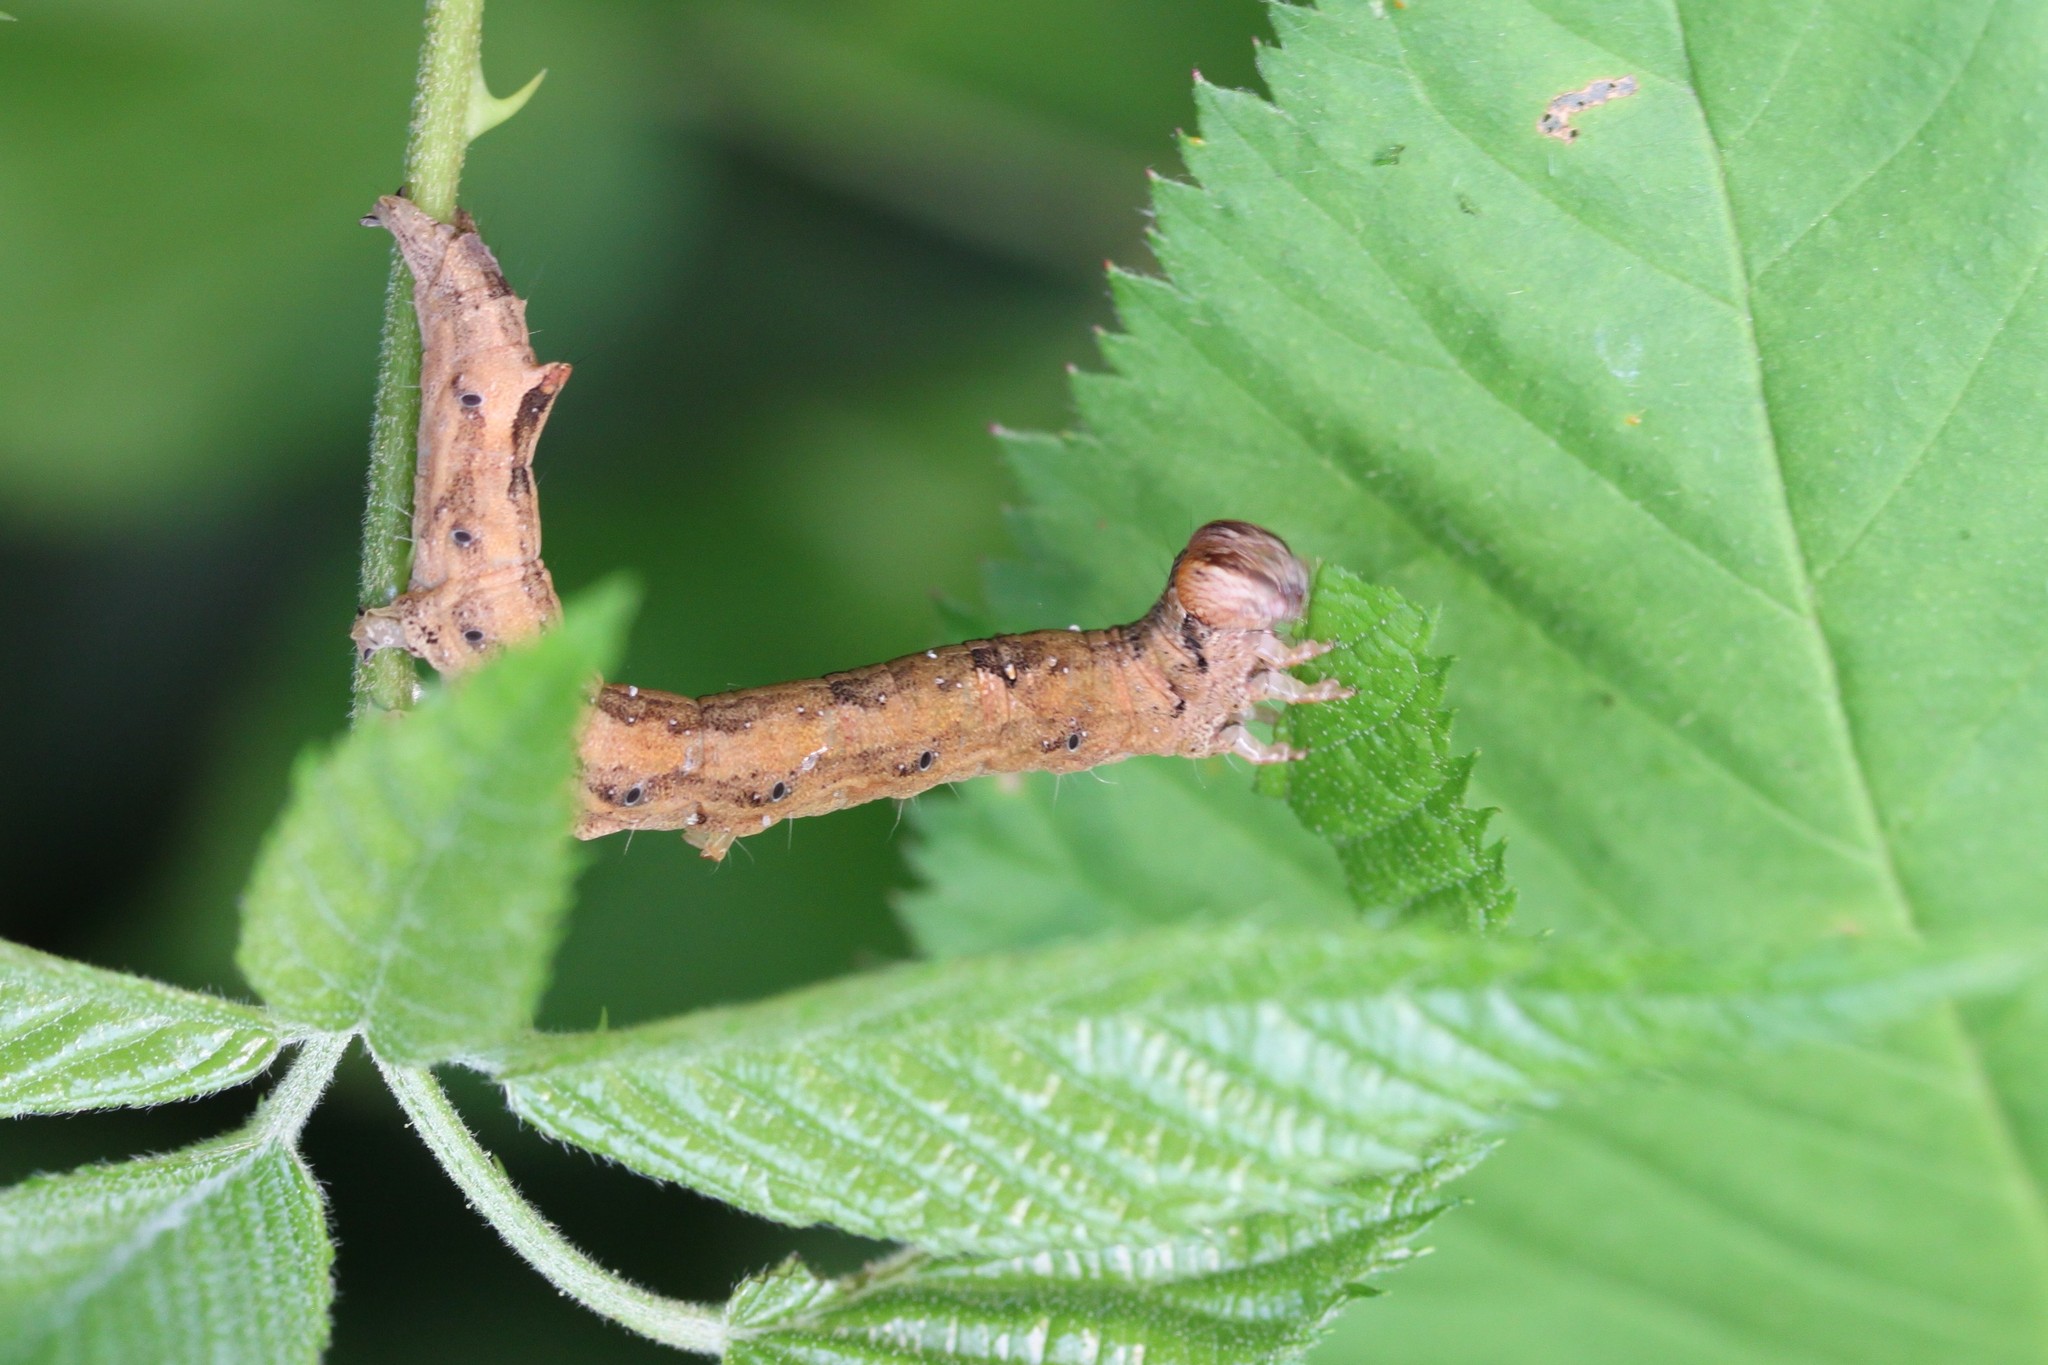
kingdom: Animalia
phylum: Arthropoda
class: Insecta
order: Lepidoptera
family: Erebidae
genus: Zale
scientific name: Zale lunata
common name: Lunate zale moth
